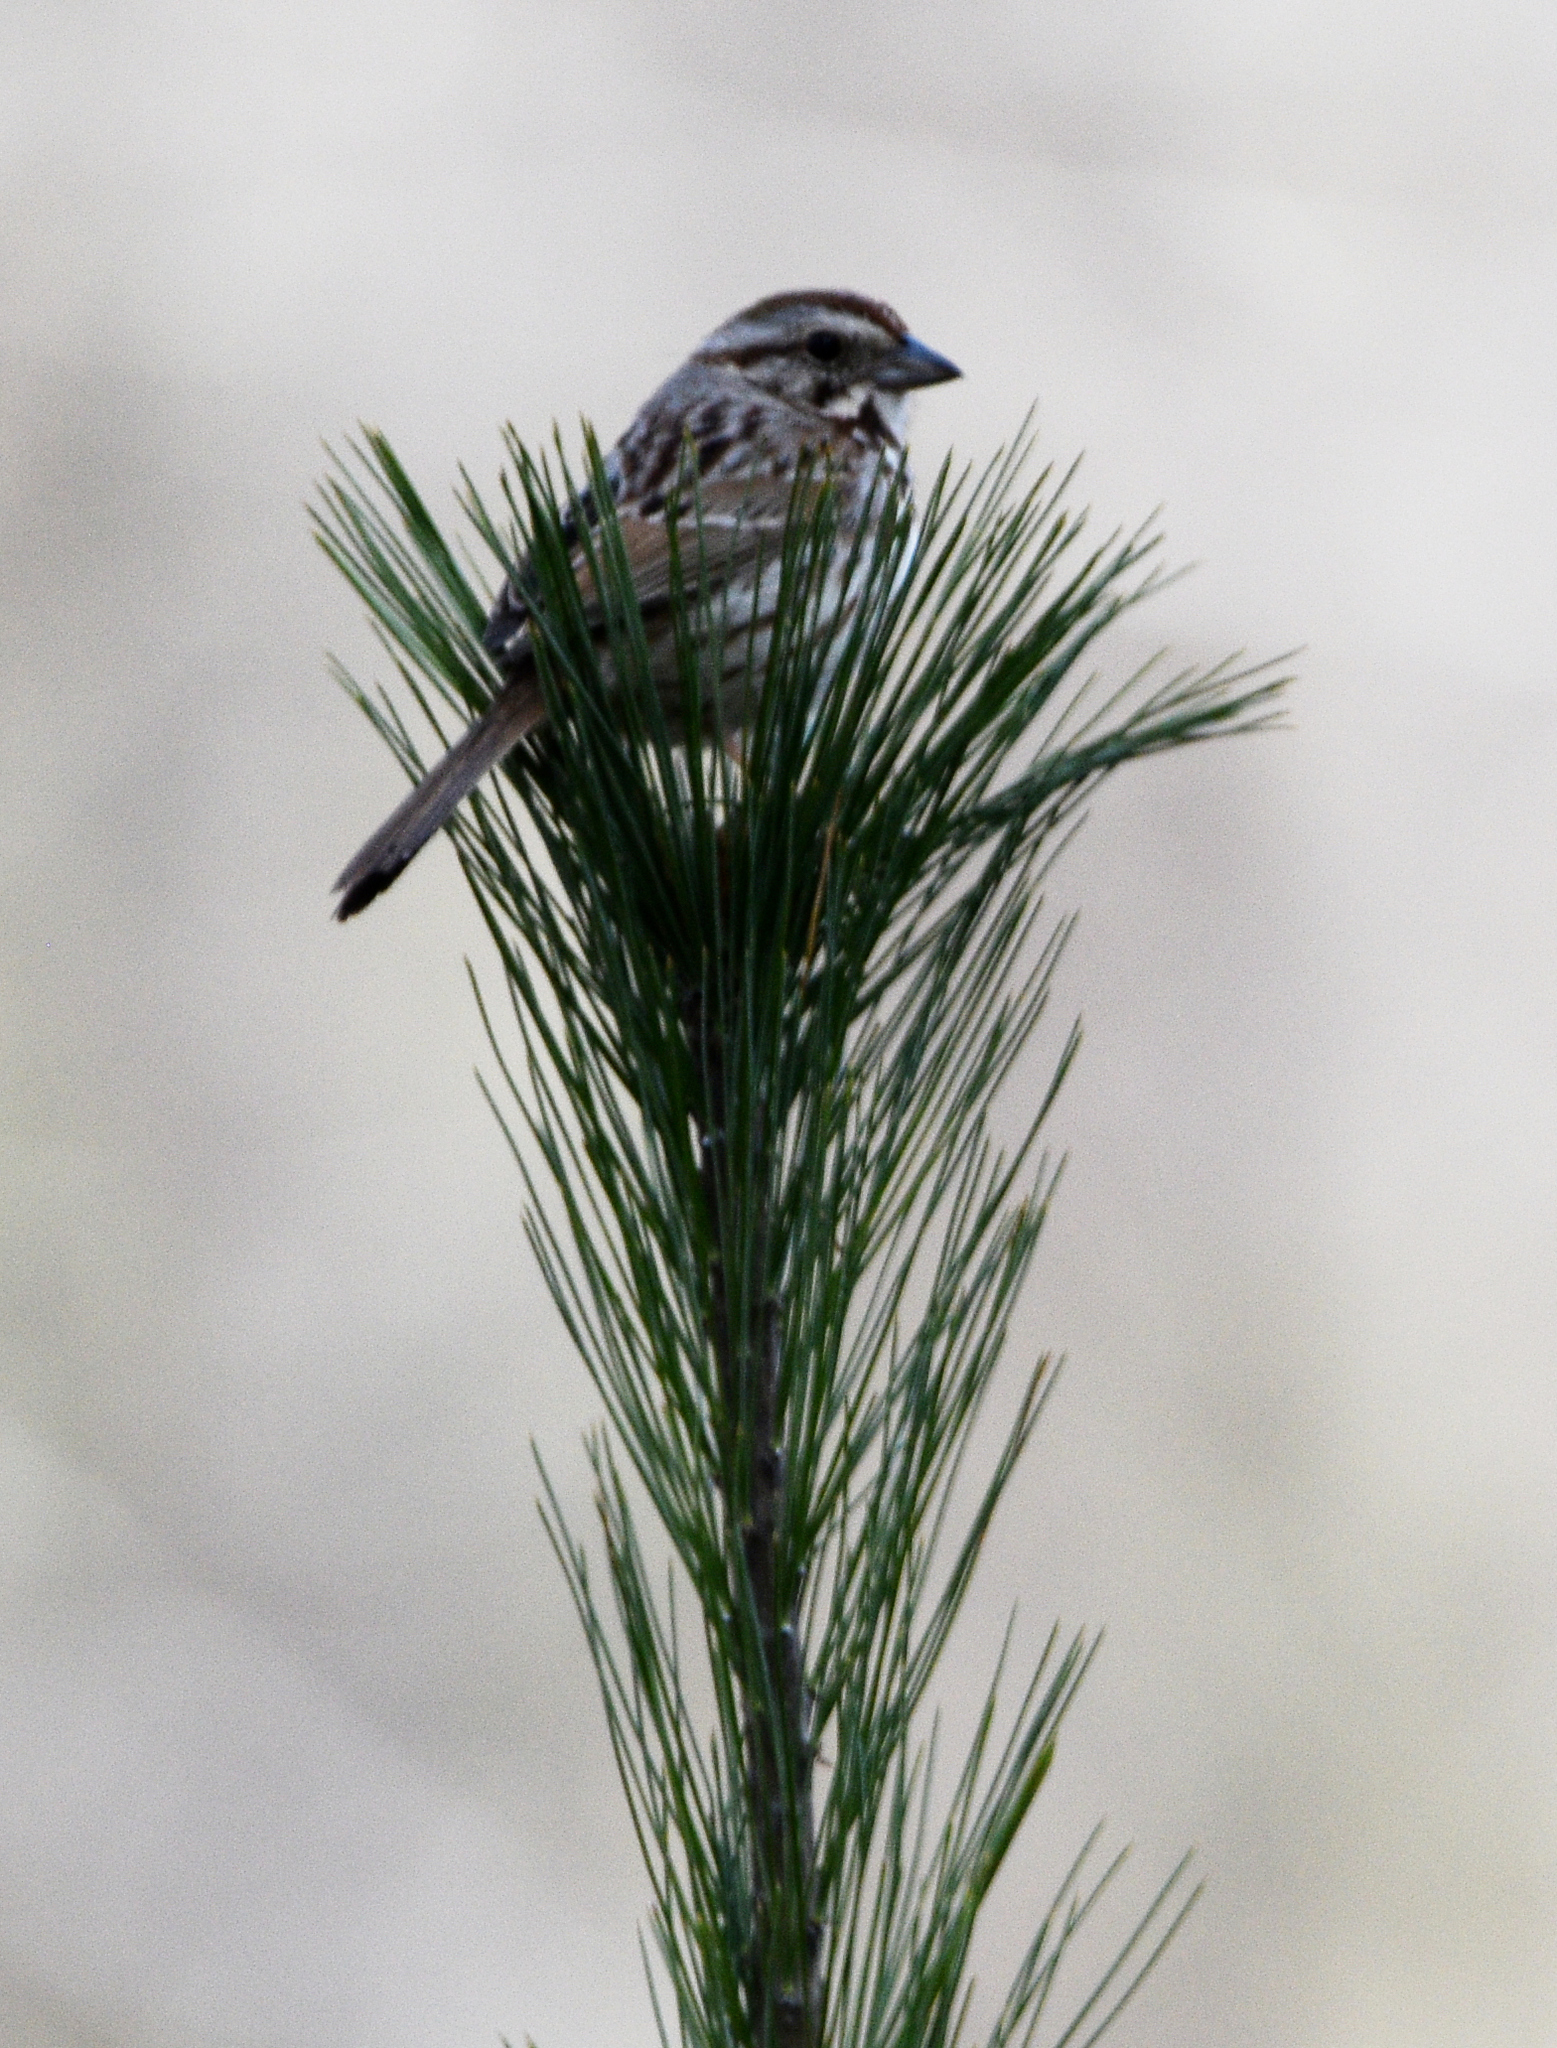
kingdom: Animalia
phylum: Chordata
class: Aves
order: Passeriformes
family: Passerellidae
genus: Melospiza
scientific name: Melospiza melodia
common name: Song sparrow
